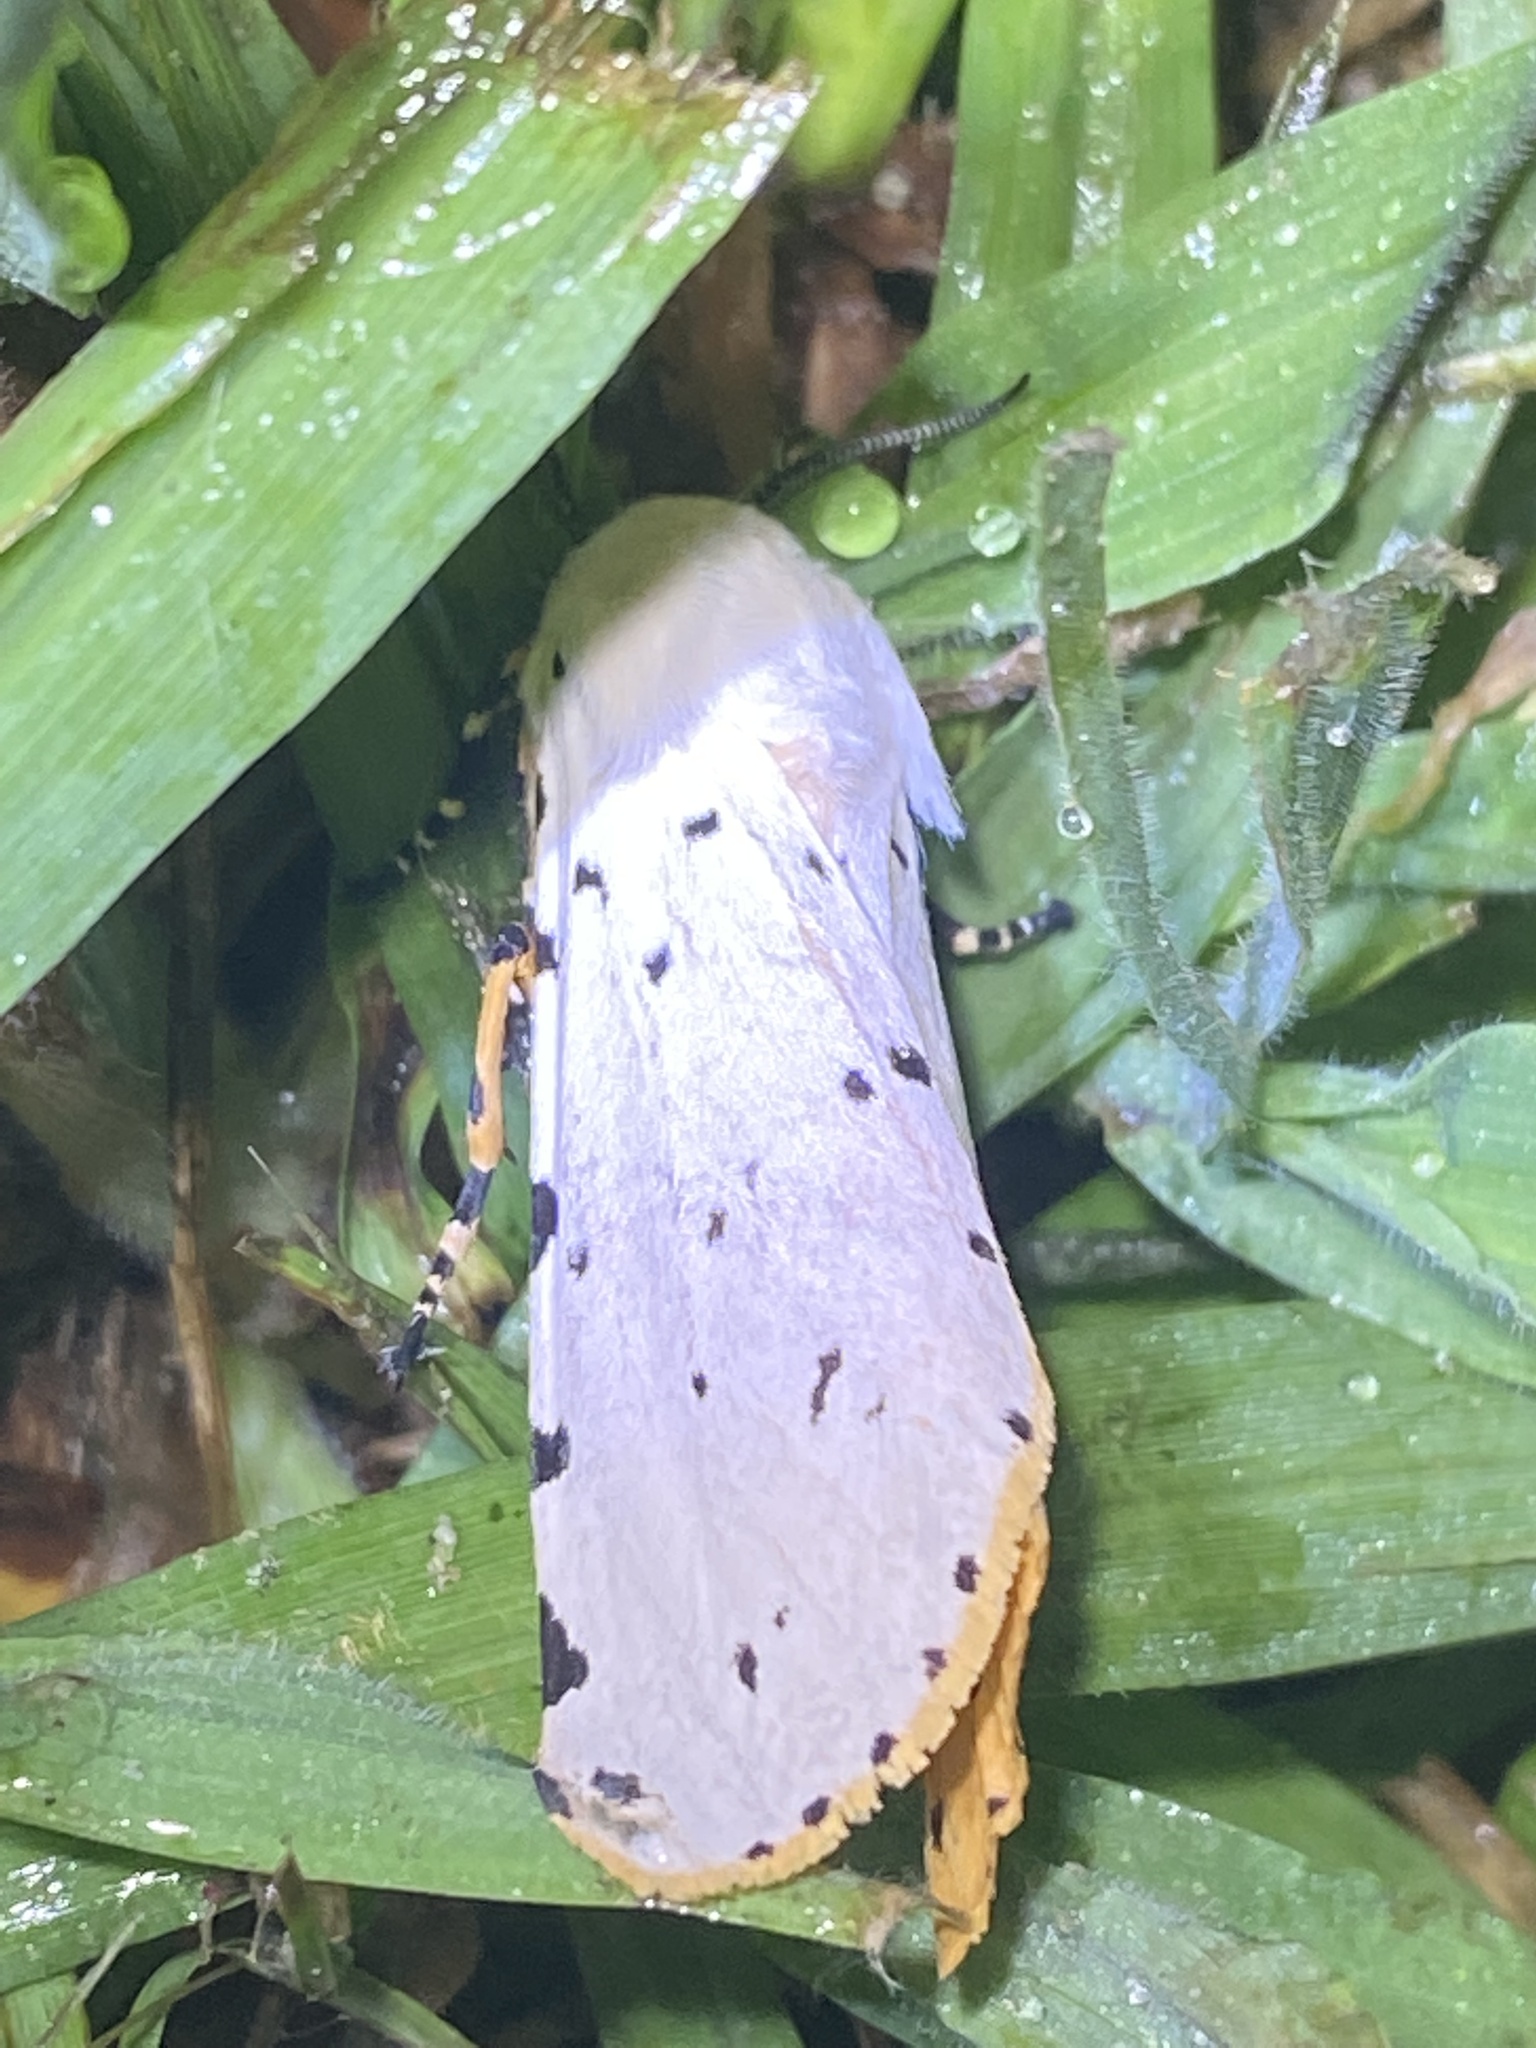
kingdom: Animalia
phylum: Arthropoda
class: Insecta
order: Lepidoptera
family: Erebidae
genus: Estigmene
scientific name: Estigmene acrea
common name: Salt marsh moth
